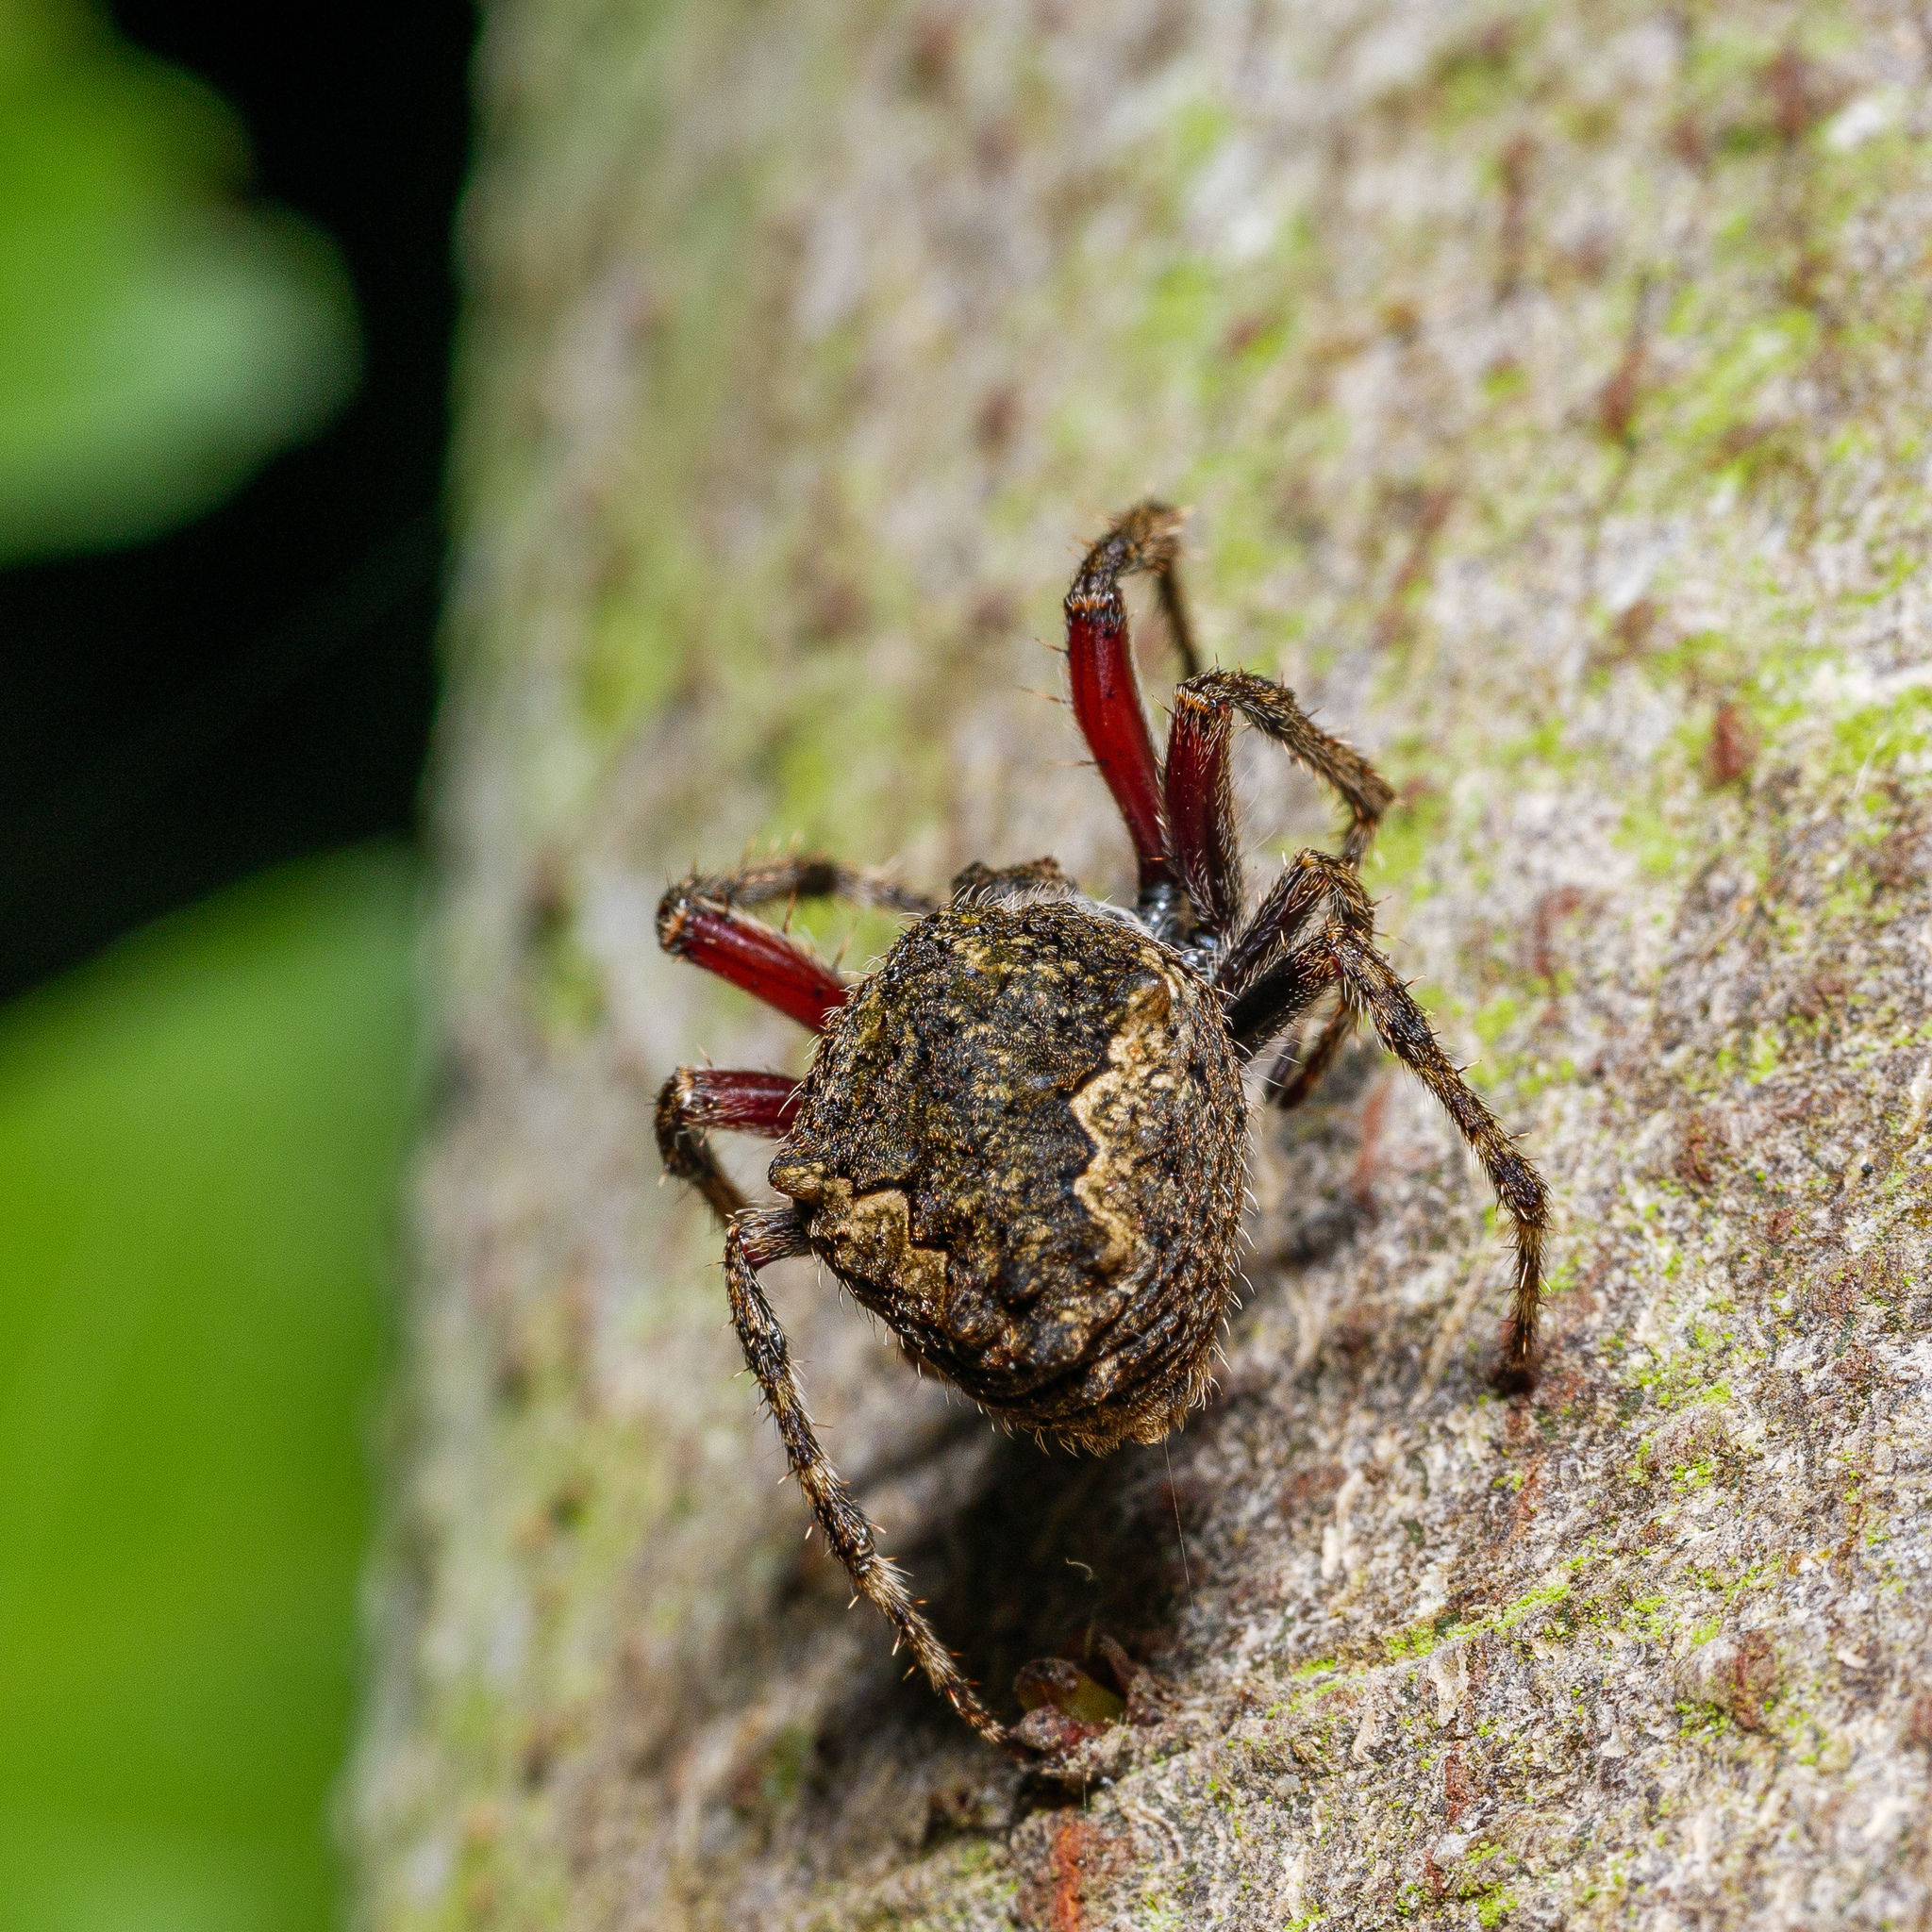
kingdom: Animalia
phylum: Arthropoda
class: Arachnida
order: Araneae
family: Araneidae
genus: Eriophora
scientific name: Eriophora pustulosa
